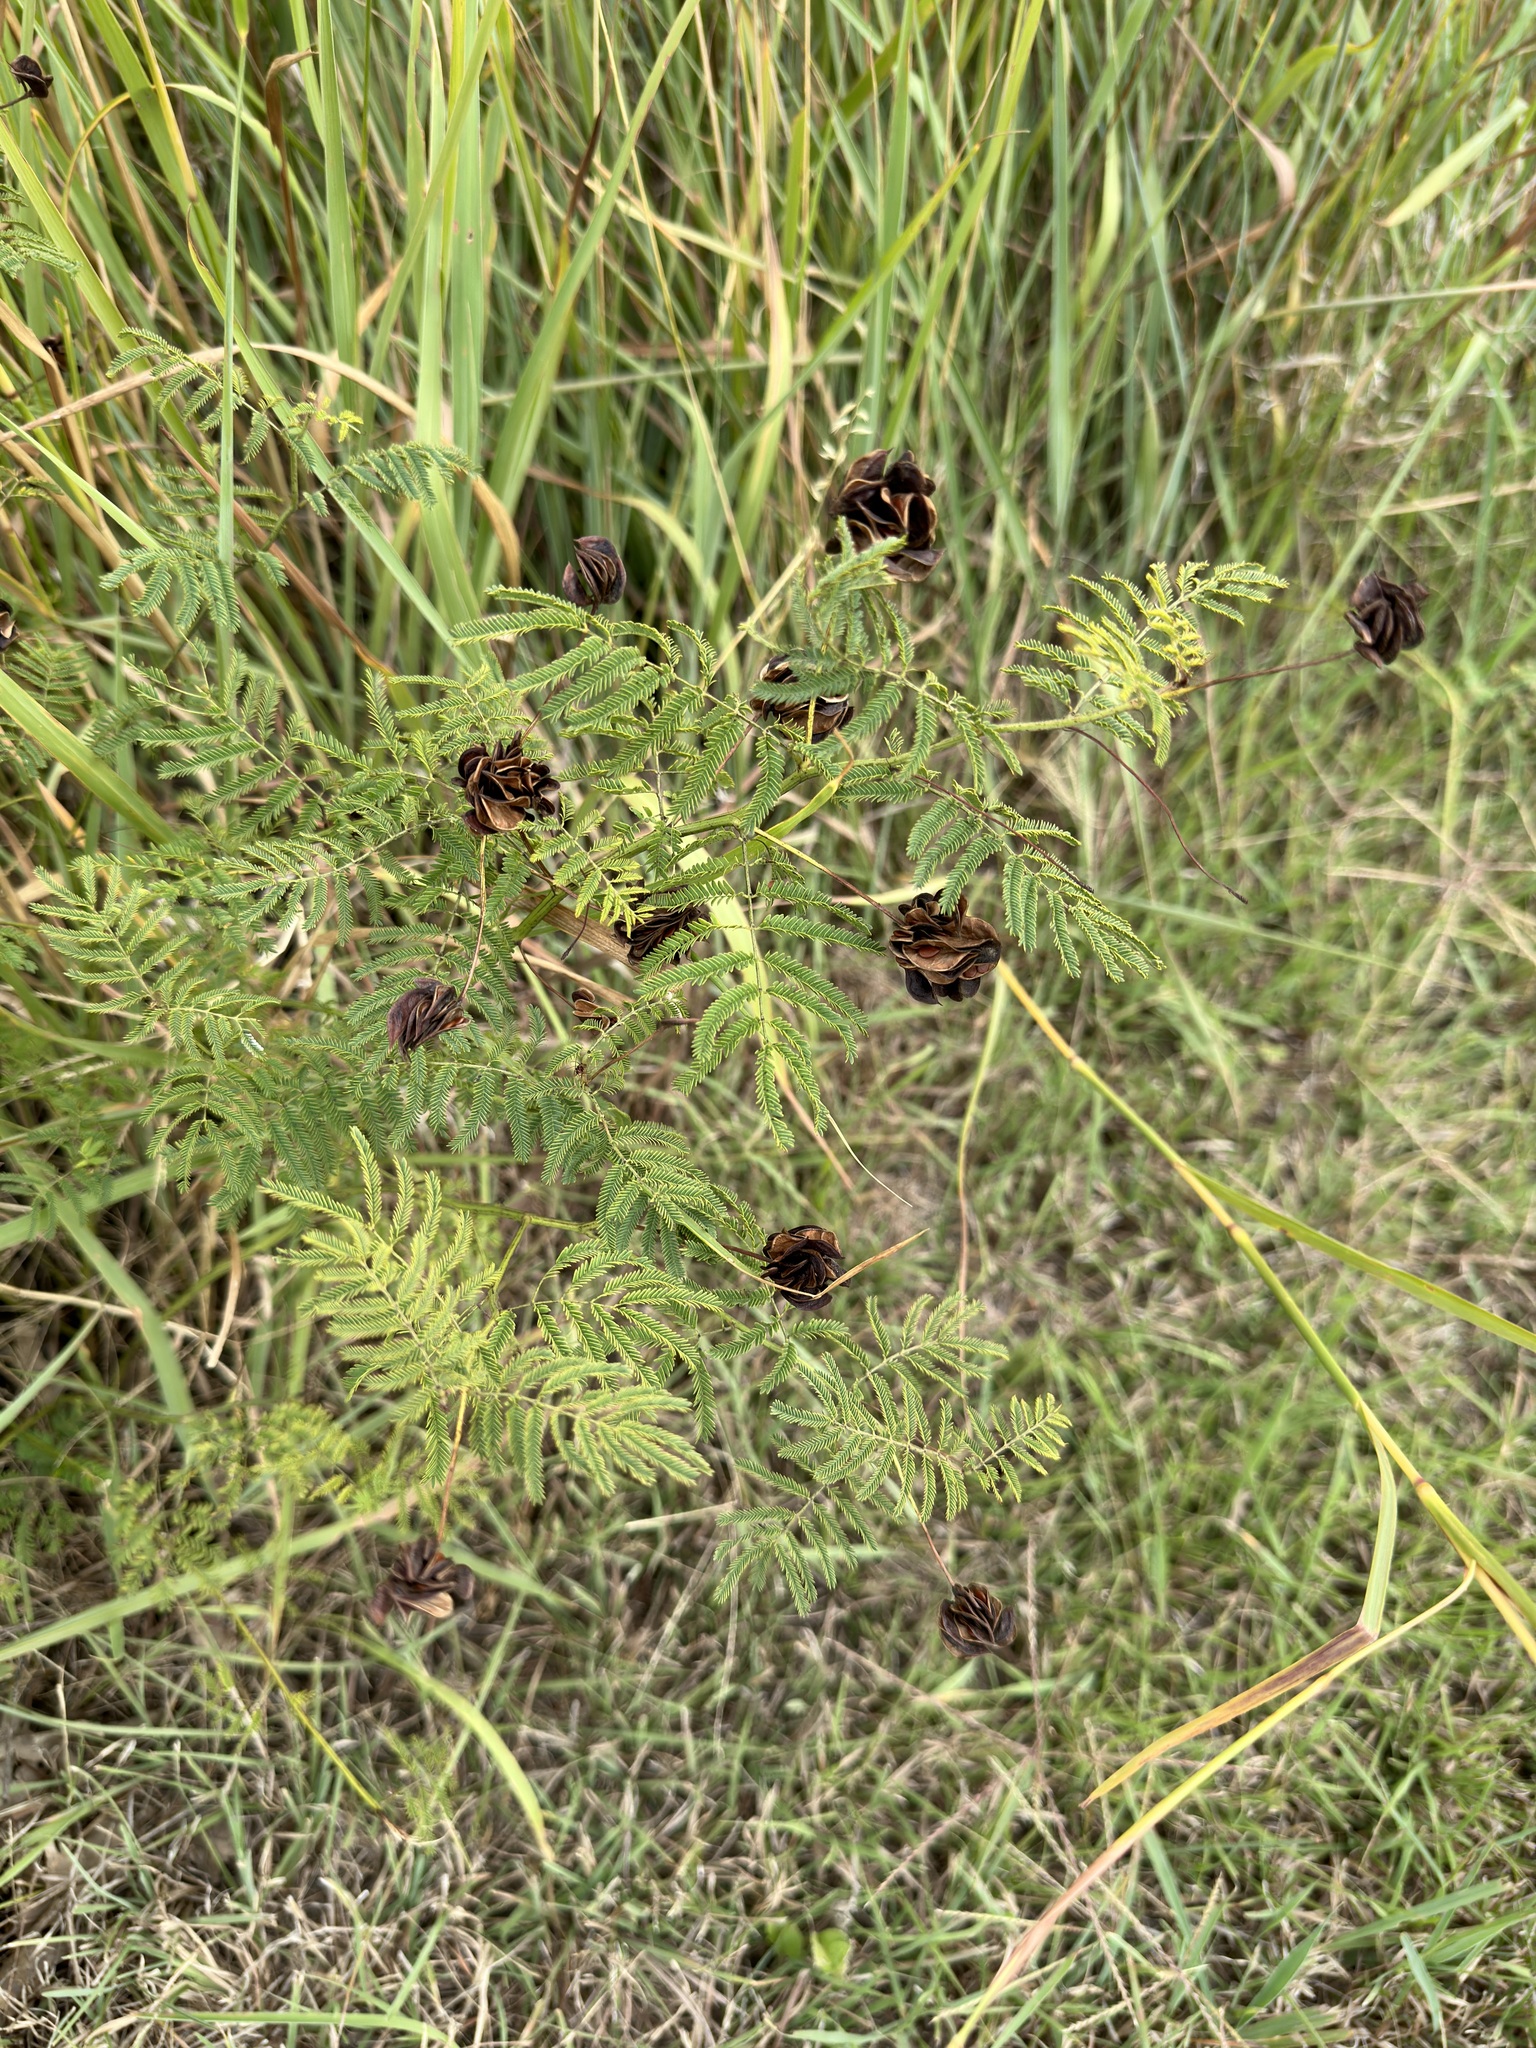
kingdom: Plantae
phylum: Tracheophyta
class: Magnoliopsida
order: Fabales
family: Fabaceae
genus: Desmanthus
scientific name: Desmanthus illinoensis
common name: Illinois bundle-flower
